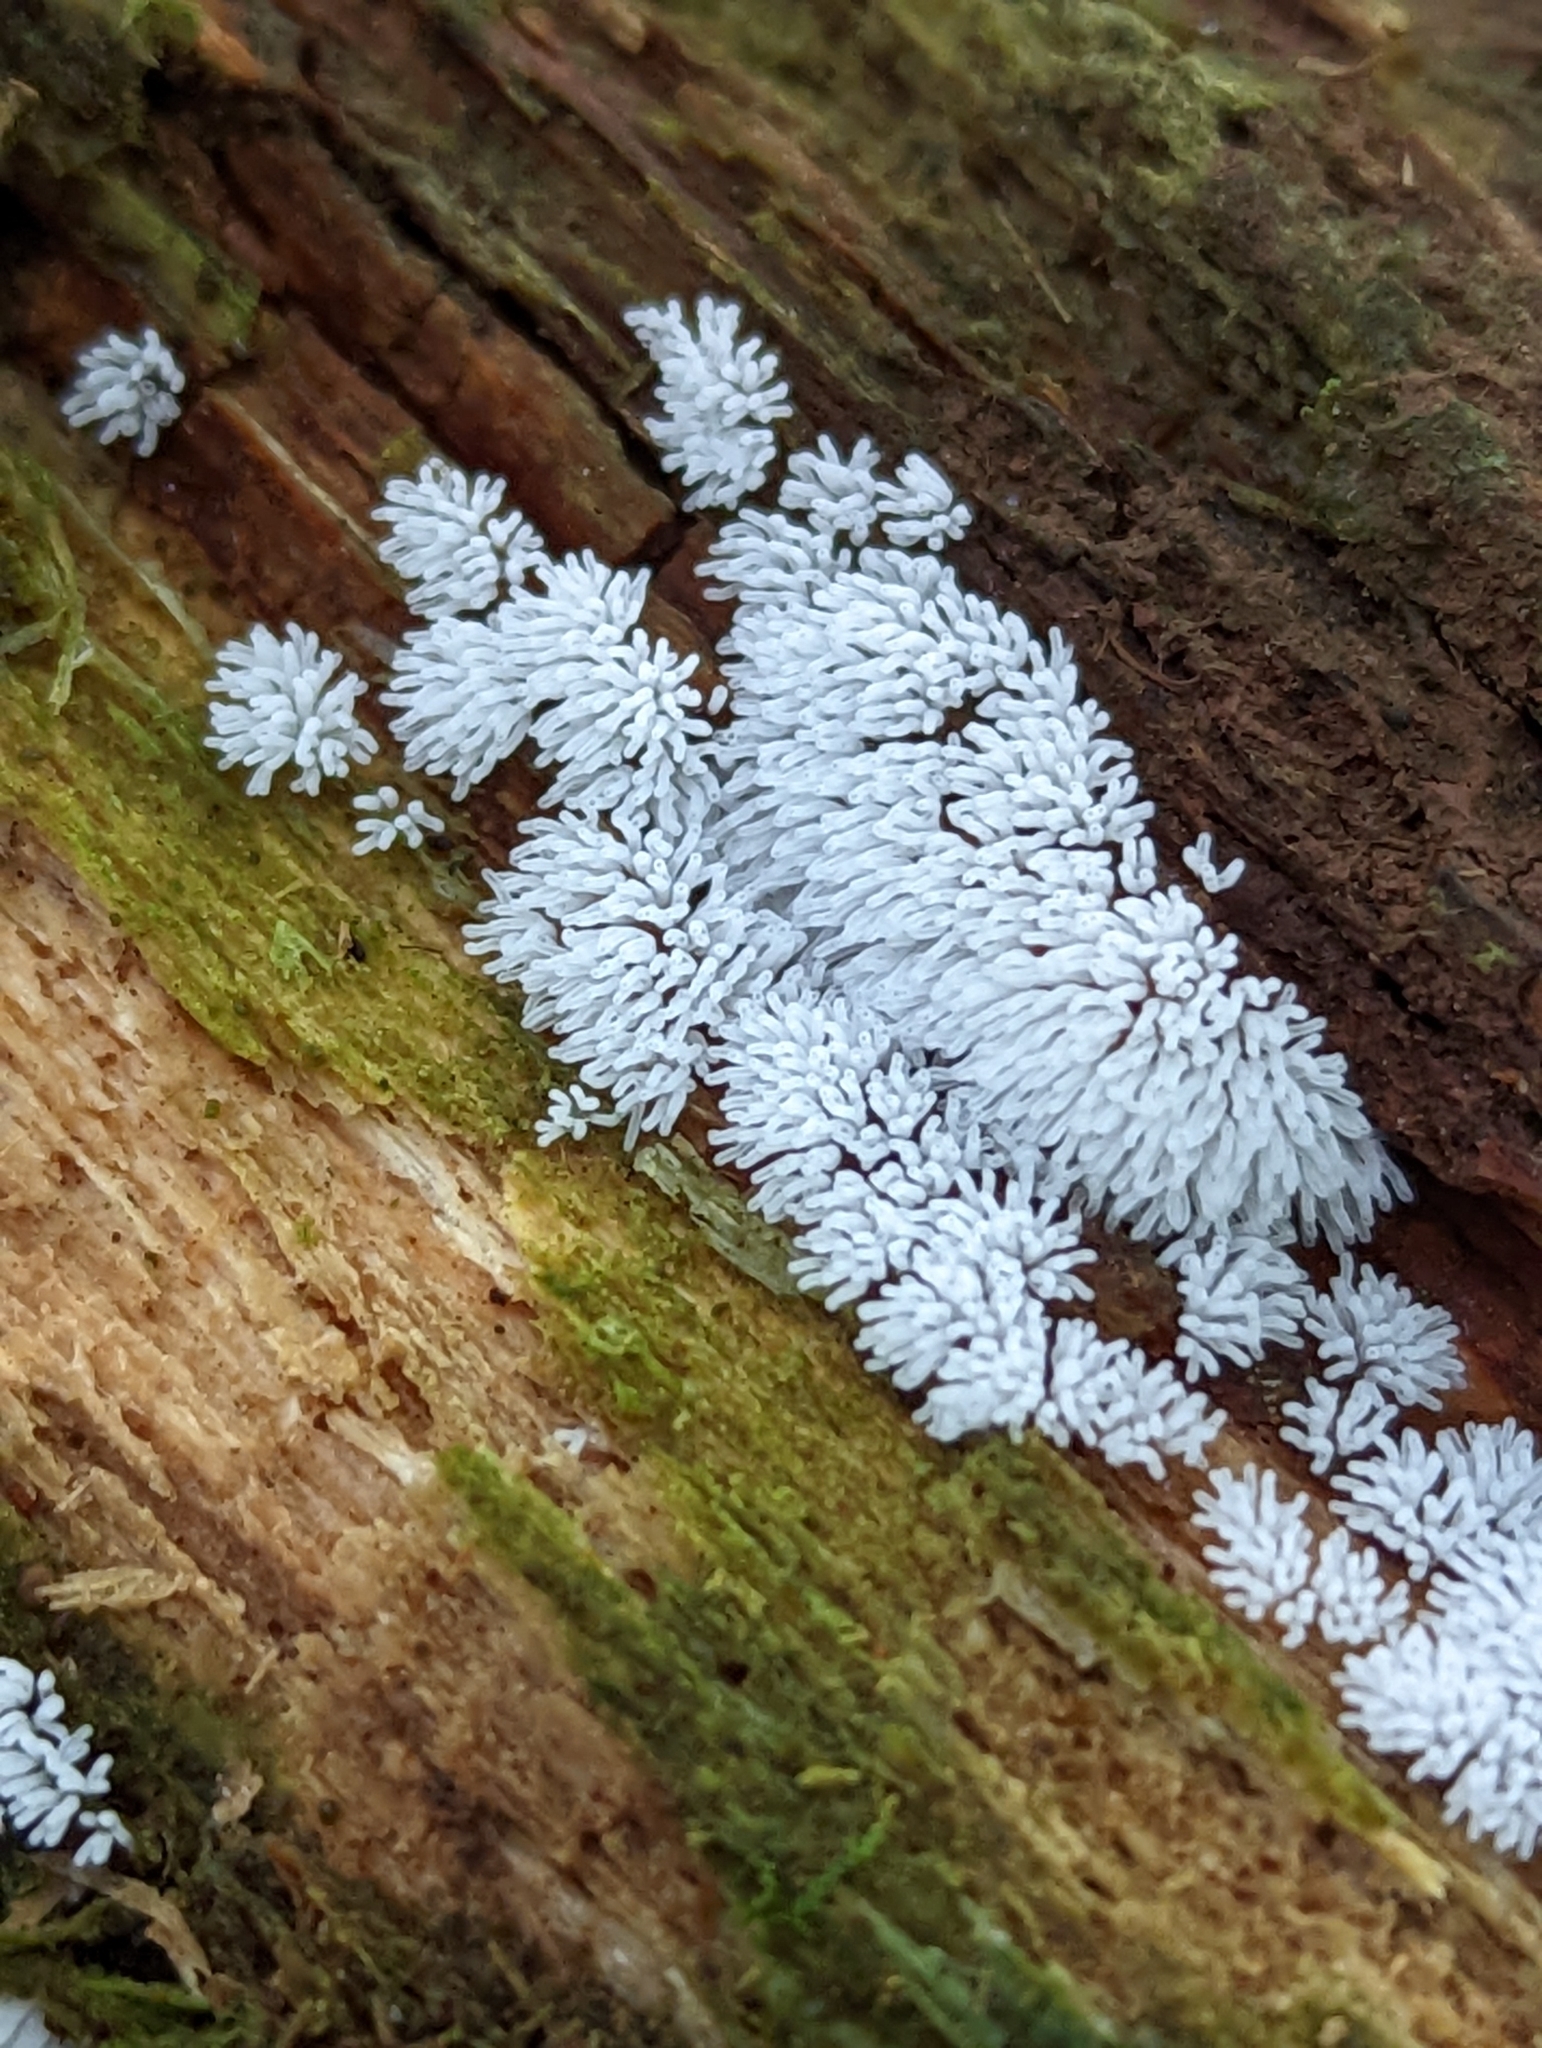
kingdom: Protozoa
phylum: Mycetozoa
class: Protosteliomycetes
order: Ceratiomyxales
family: Ceratiomyxaceae
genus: Ceratiomyxa
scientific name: Ceratiomyxa fruticulosa
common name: Honeycomb coral slime mold
